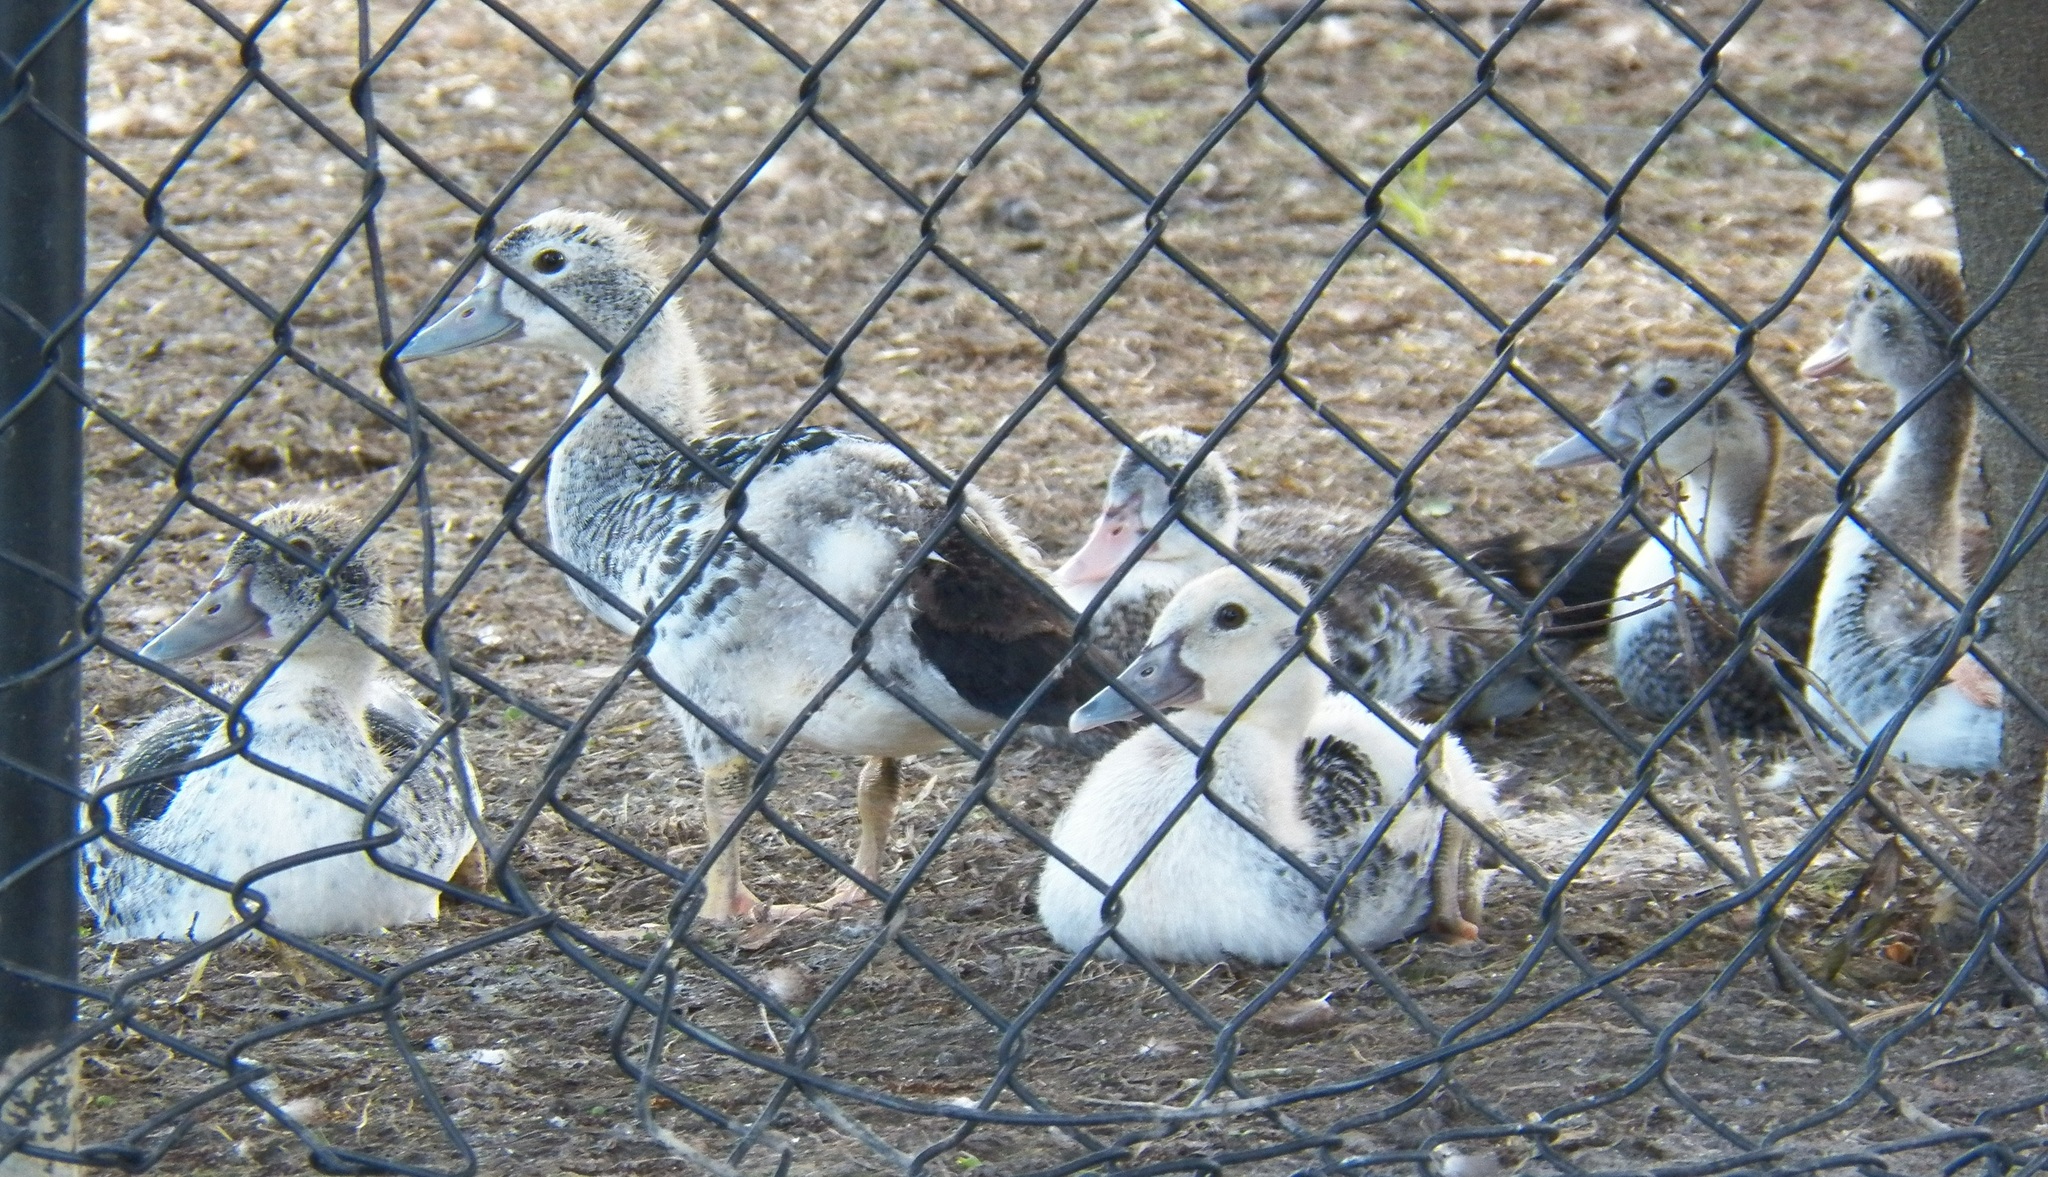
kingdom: Animalia
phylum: Chordata
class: Aves
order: Anseriformes
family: Anatidae
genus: Cairina
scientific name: Cairina moschata
